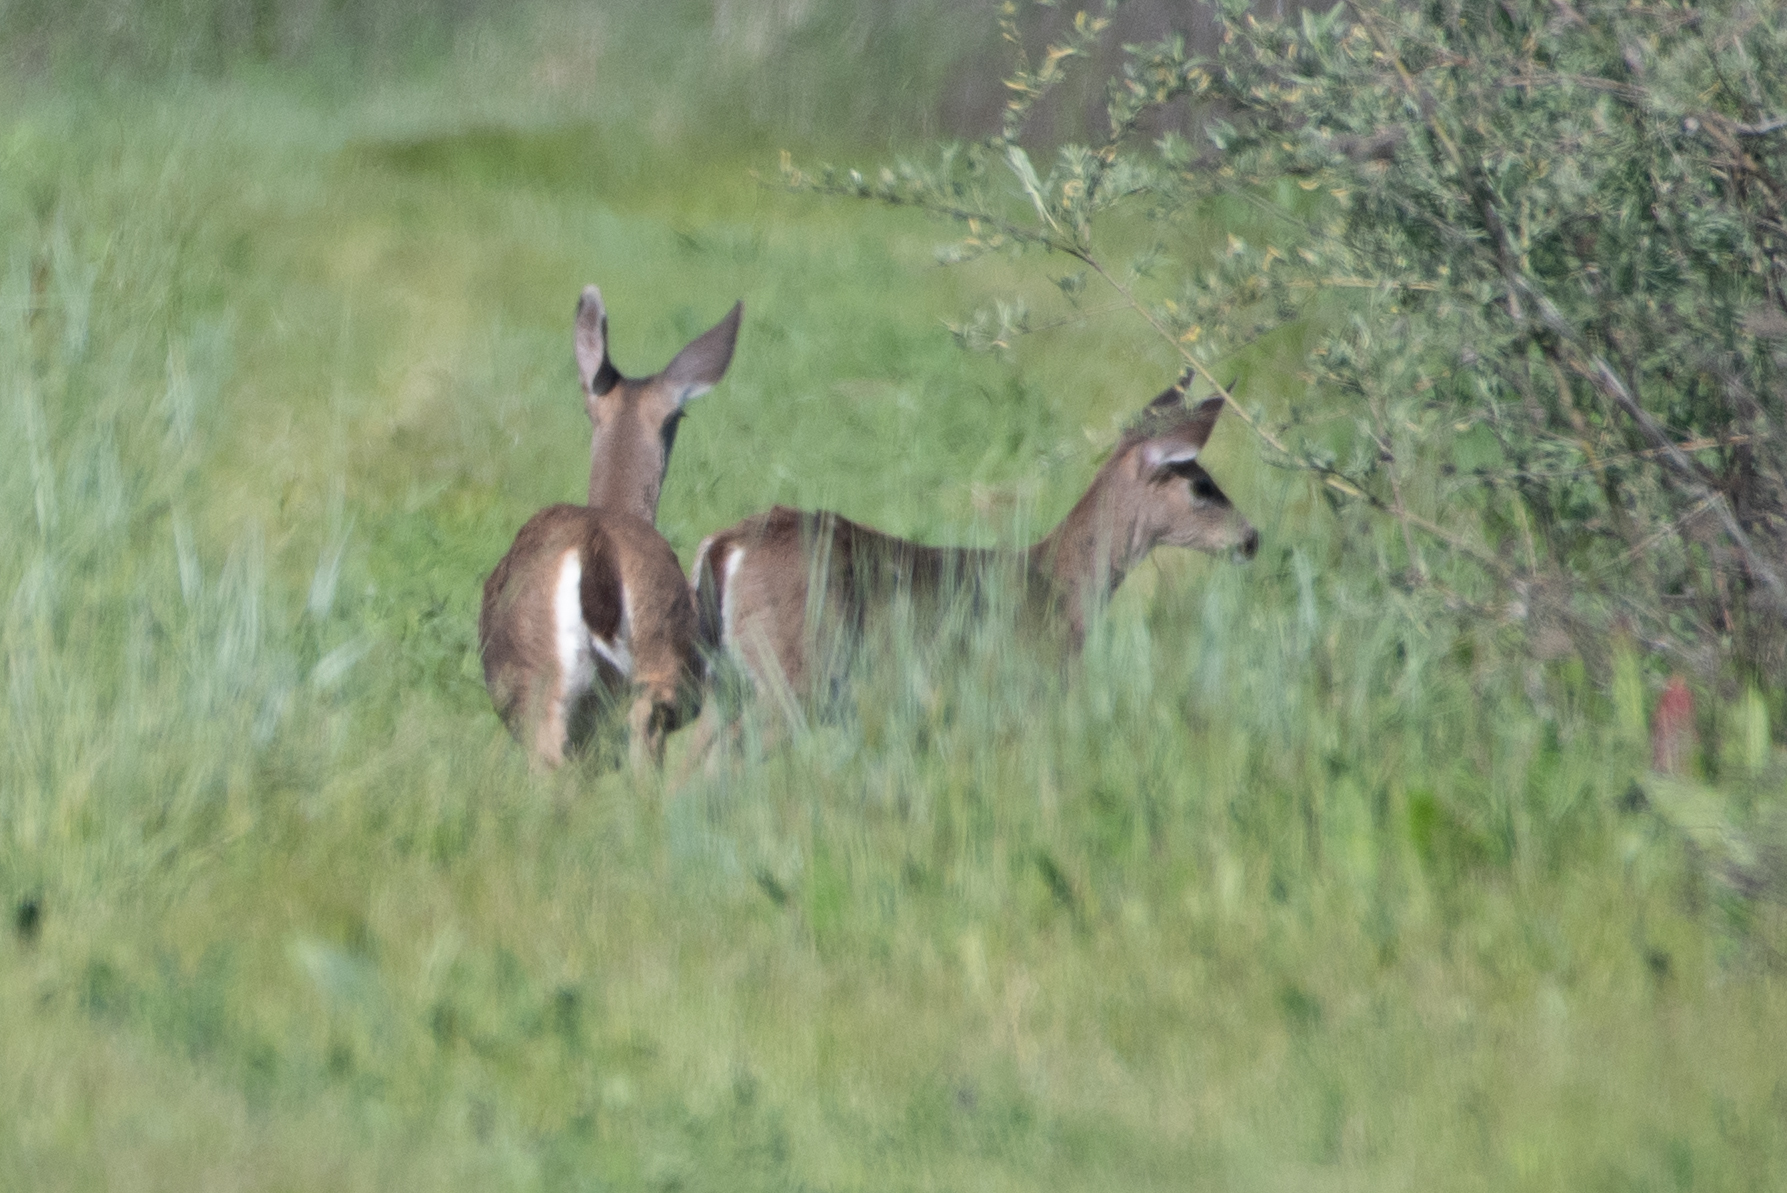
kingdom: Animalia
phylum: Chordata
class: Mammalia
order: Artiodactyla
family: Cervidae
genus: Odocoileus
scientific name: Odocoileus hemionus
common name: Mule deer
